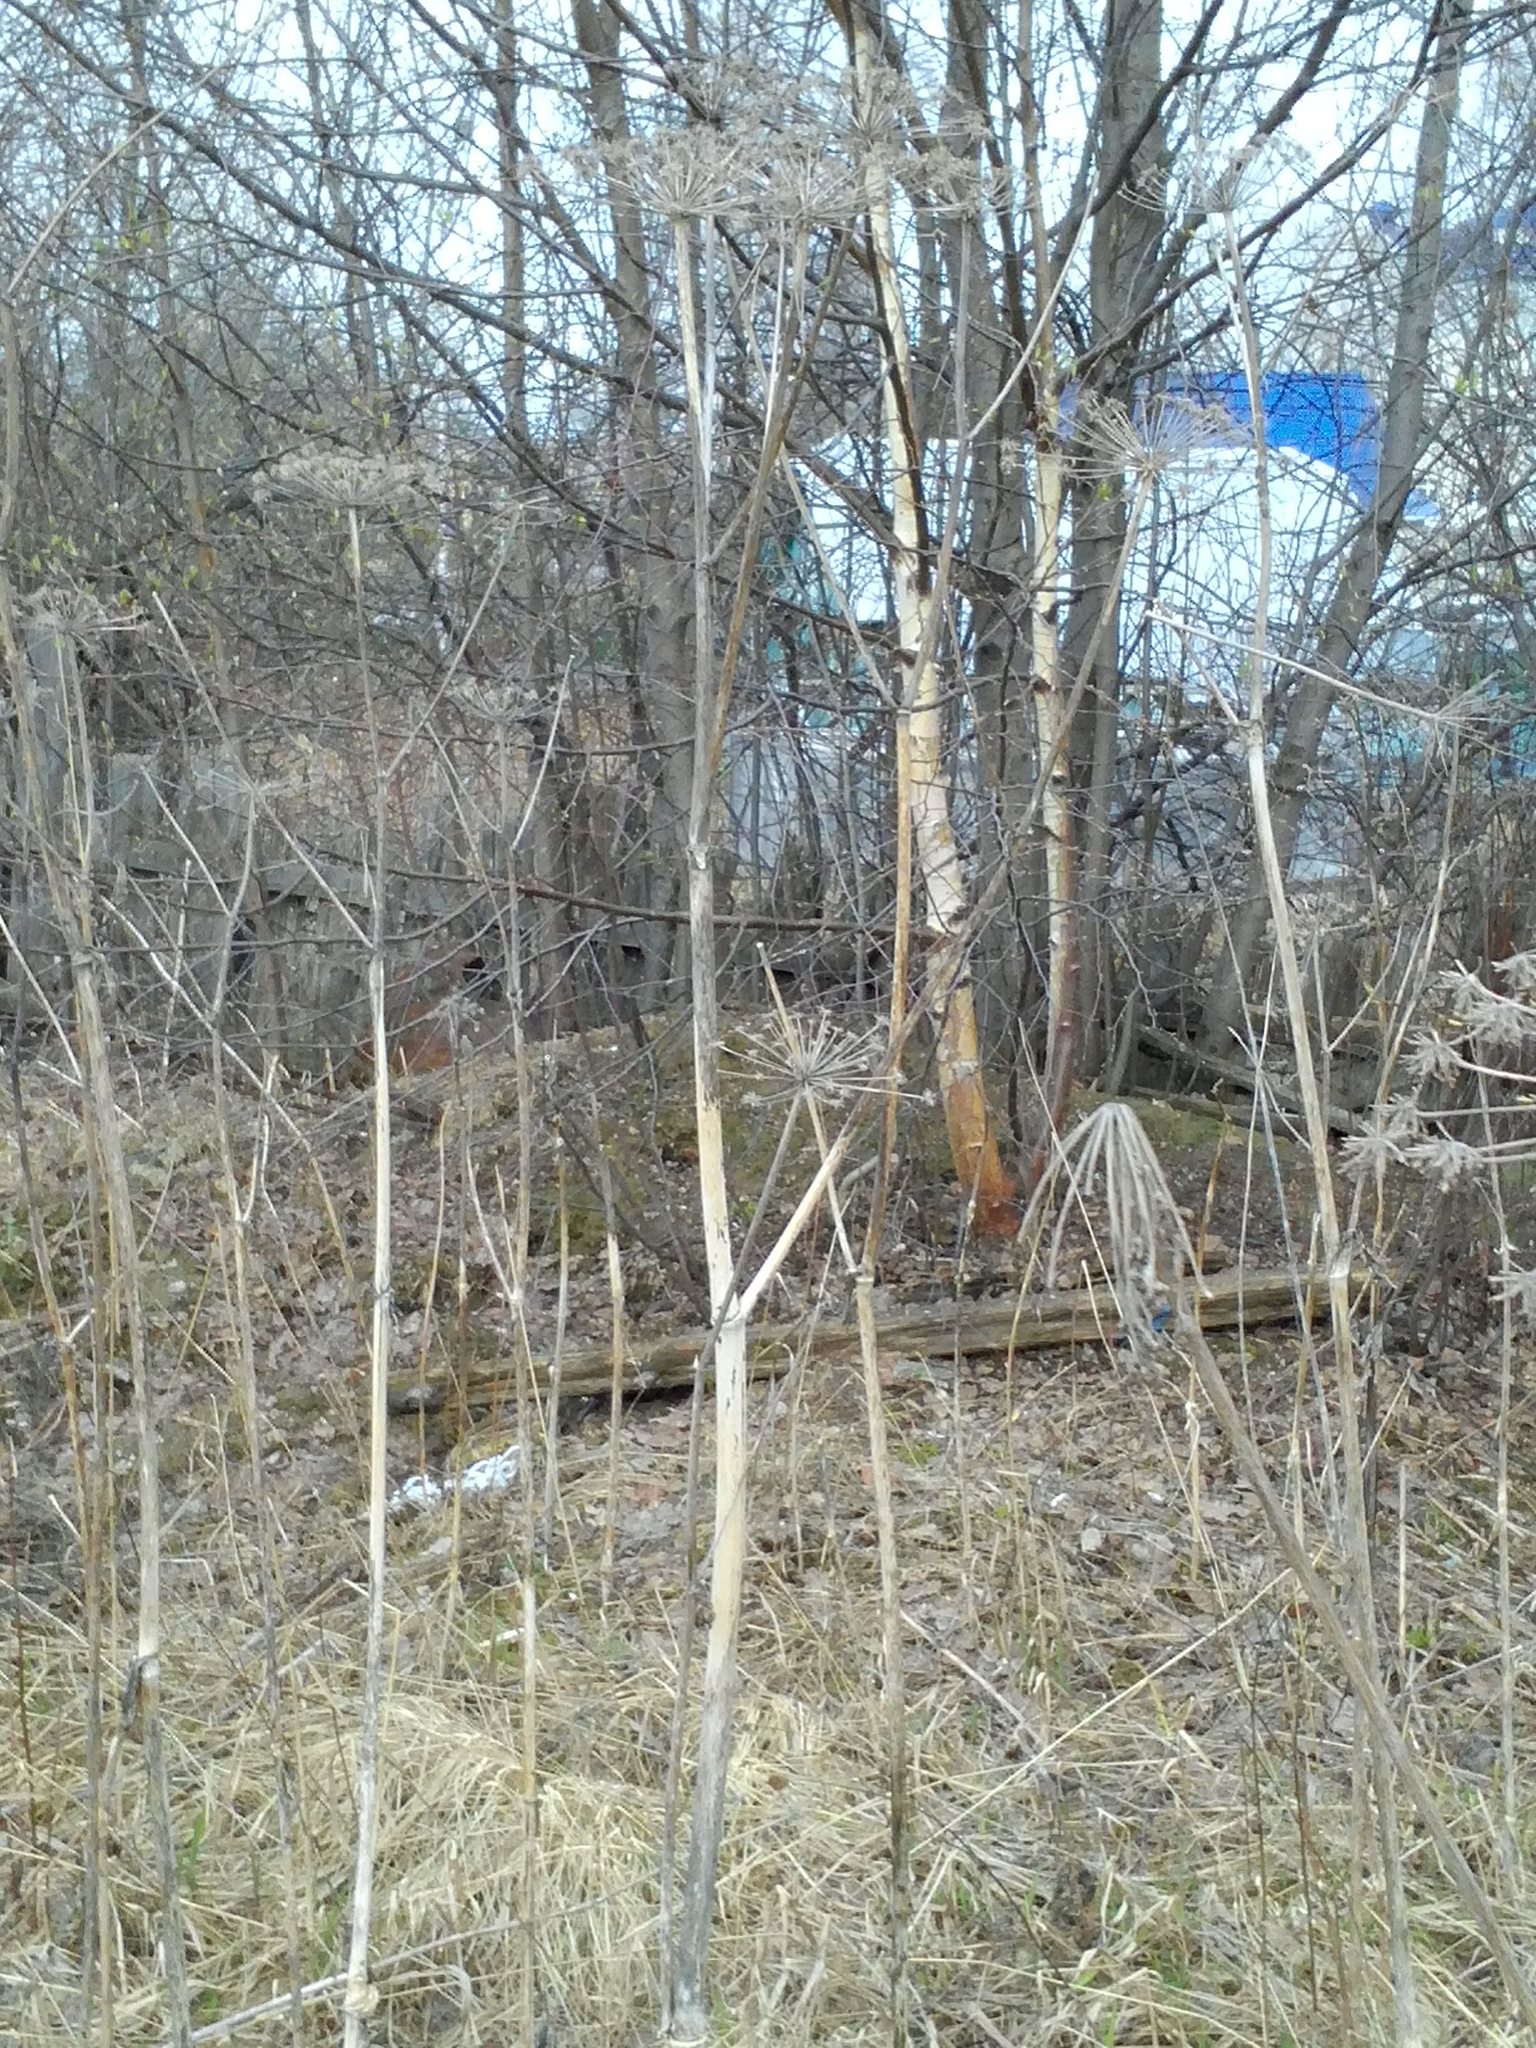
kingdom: Plantae
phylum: Tracheophyta
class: Magnoliopsida
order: Apiales
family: Apiaceae
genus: Angelica
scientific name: Angelica sylvestris
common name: Wild angelica
